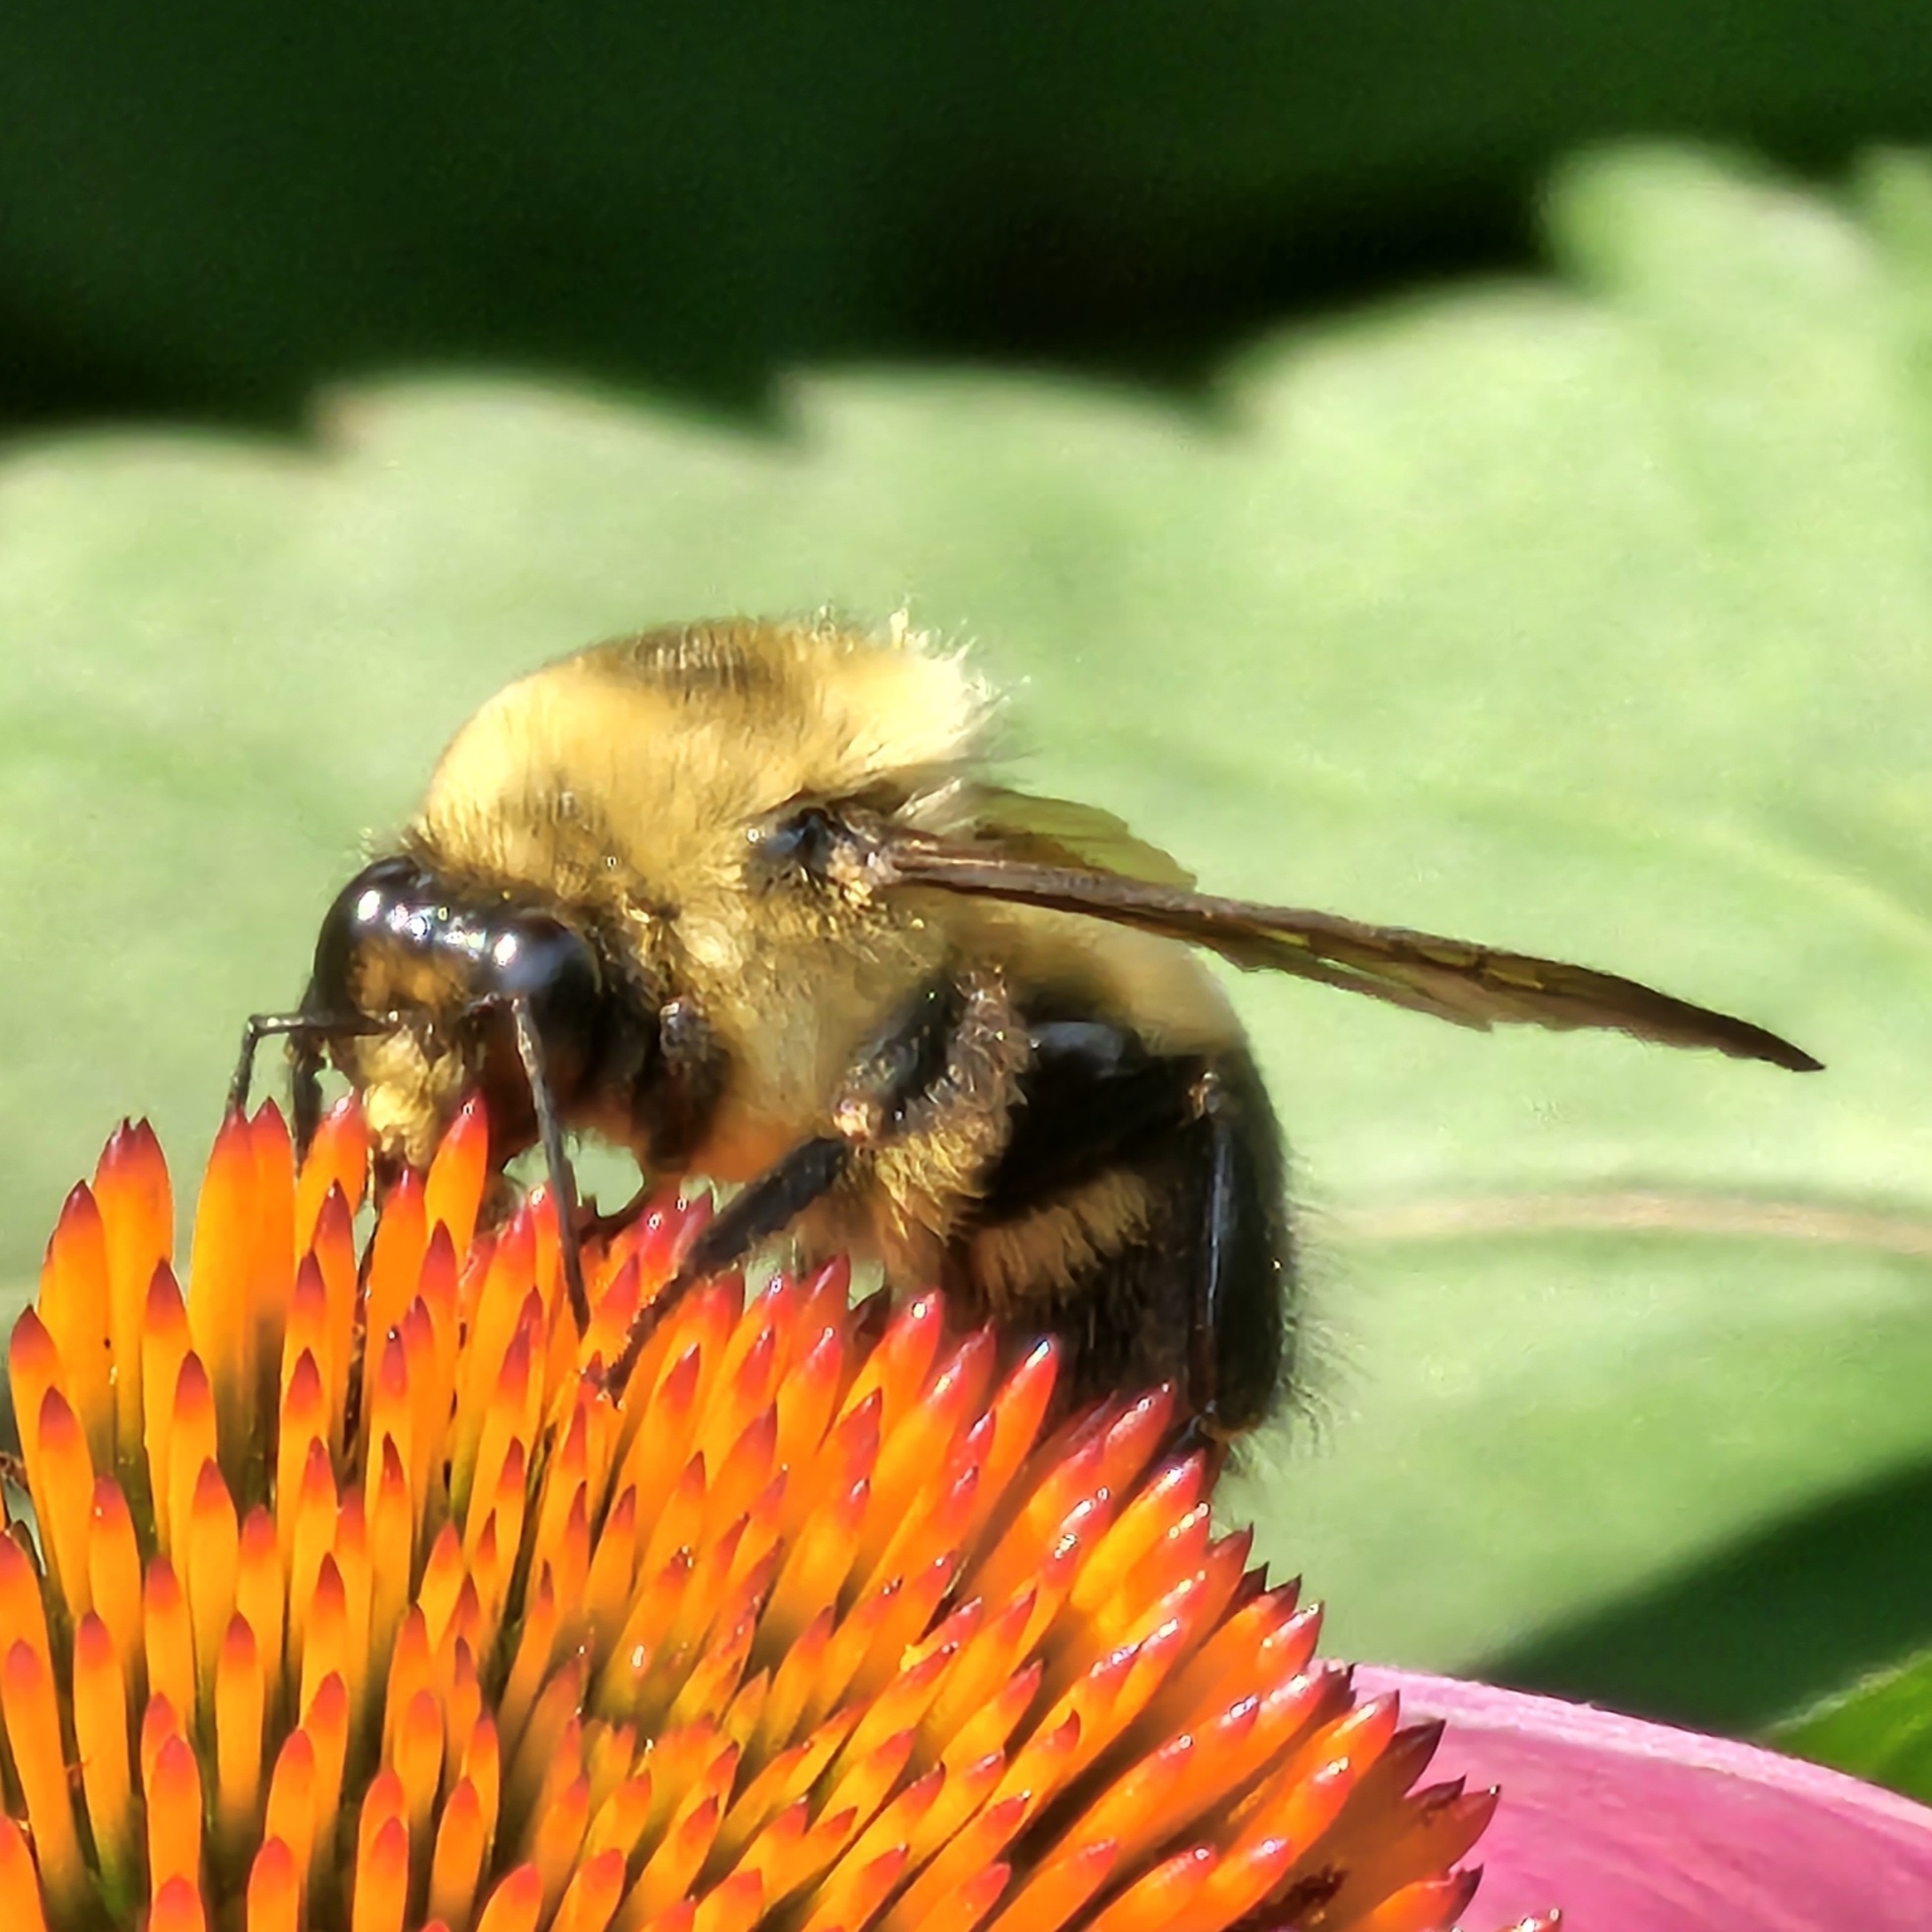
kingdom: Animalia
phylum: Arthropoda
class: Insecta
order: Hymenoptera
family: Apidae
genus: Bombus
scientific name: Bombus griseocollis
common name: Brown-belted bumble bee
